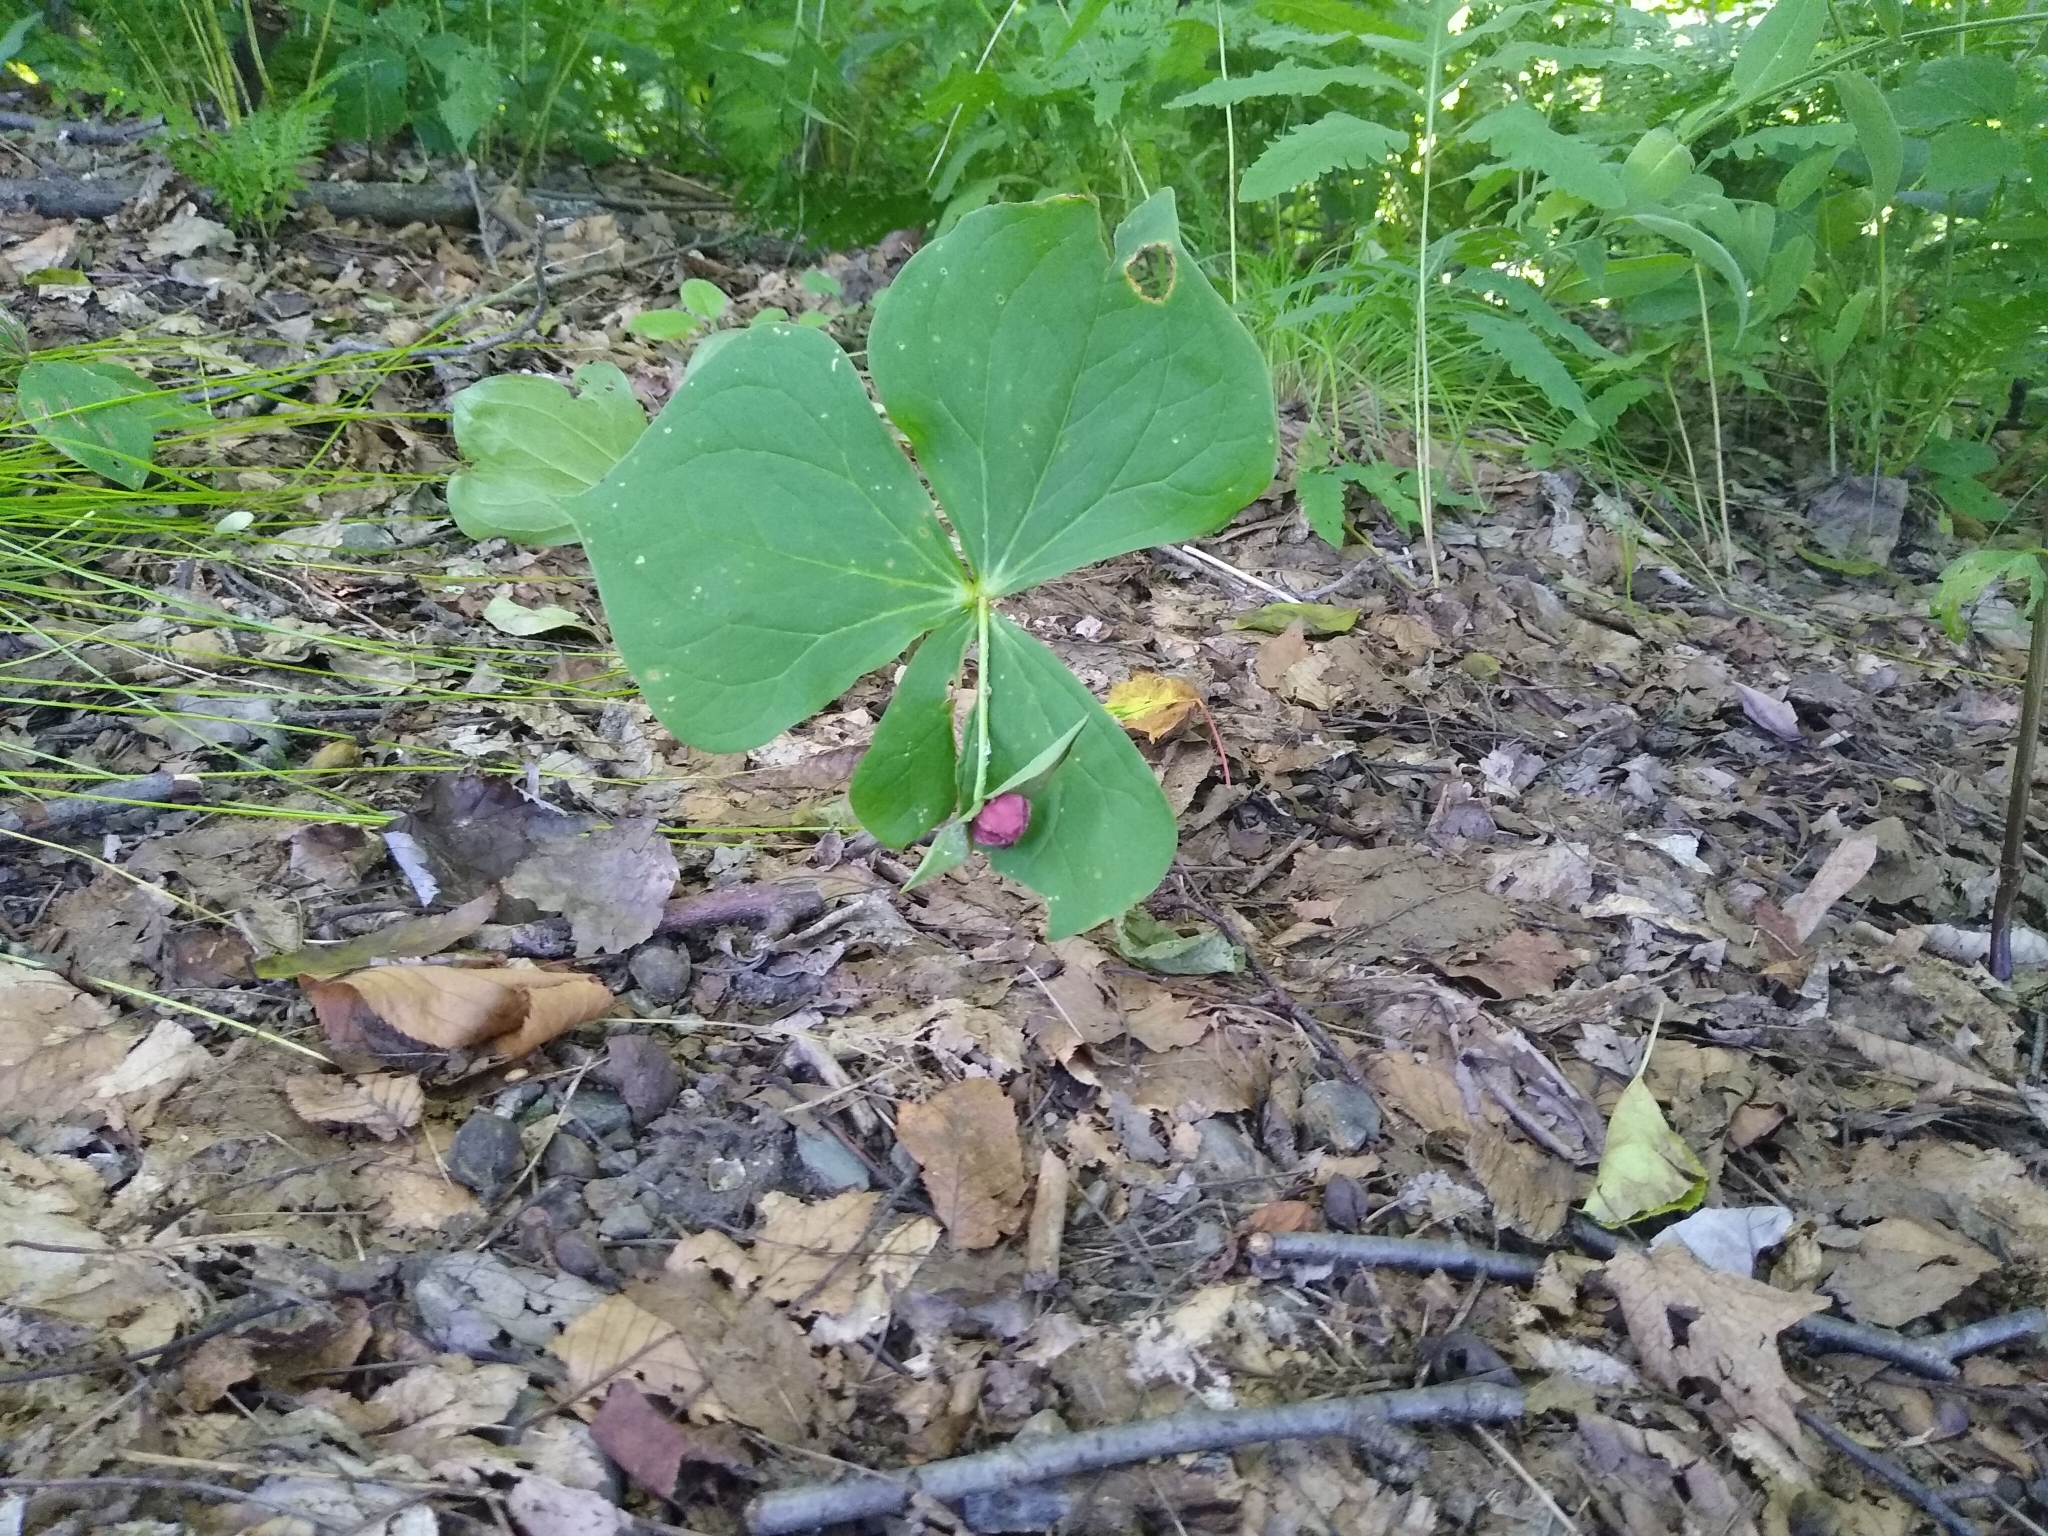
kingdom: Plantae
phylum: Tracheophyta
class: Liliopsida
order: Liliales
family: Melanthiaceae
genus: Trillium
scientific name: Trillium erectum
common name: Purple trillium
